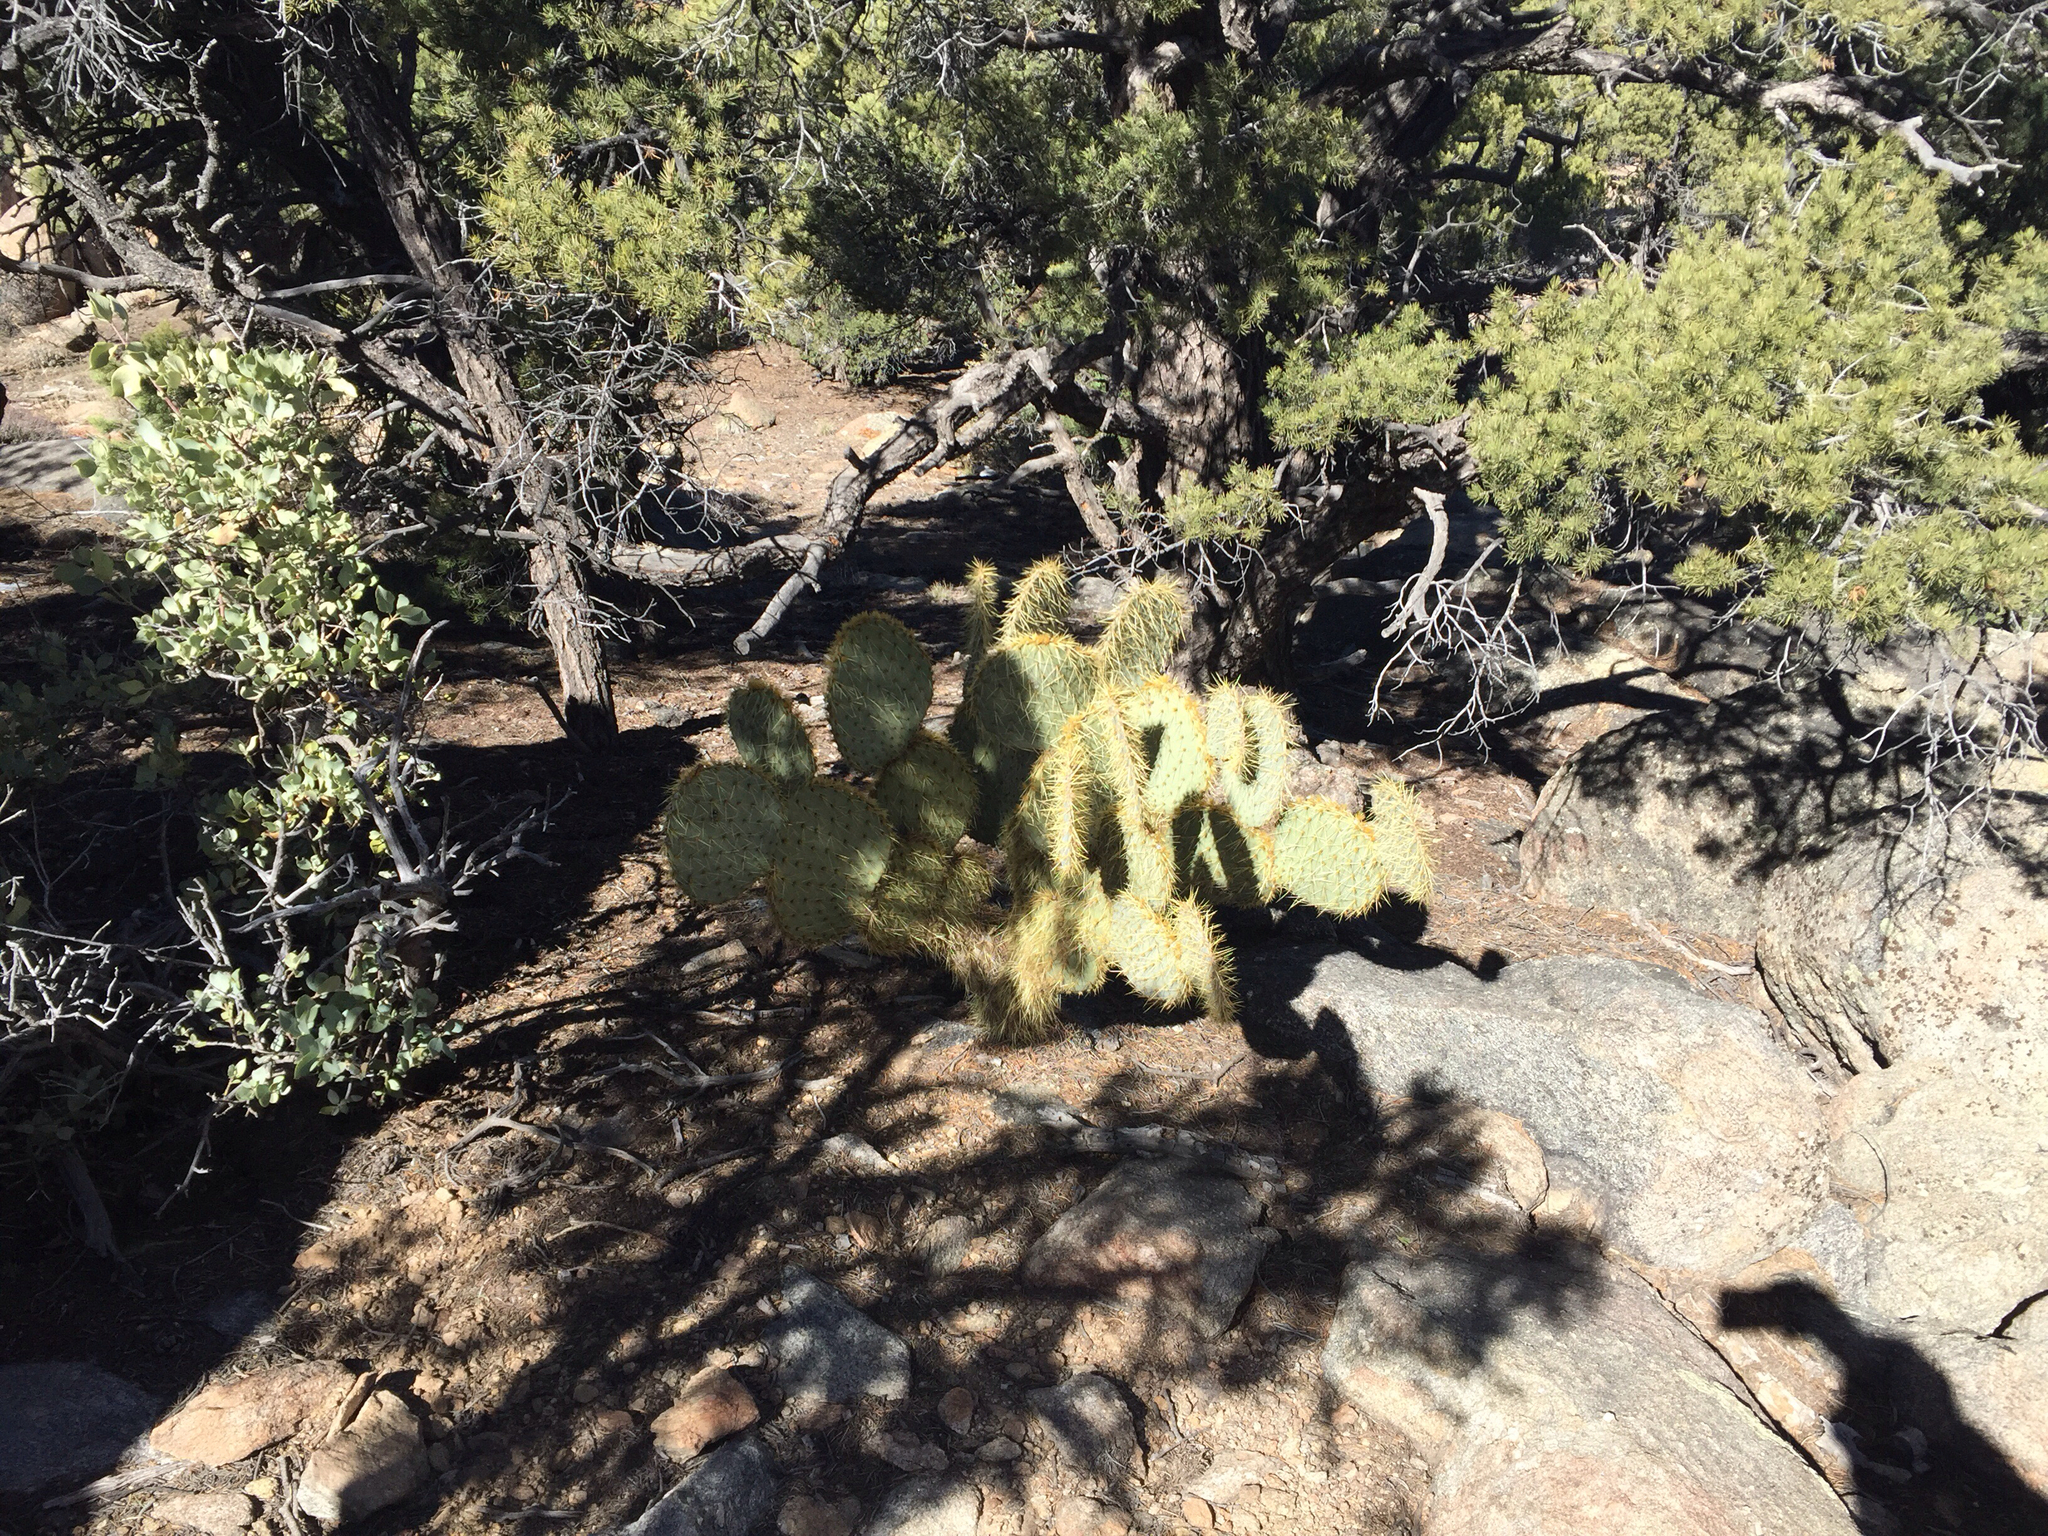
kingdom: Plantae
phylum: Tracheophyta
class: Magnoliopsida
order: Caryophyllales
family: Cactaceae
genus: Opuntia
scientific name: Opuntia chlorotica
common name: Dollar-joint prickly-pear
